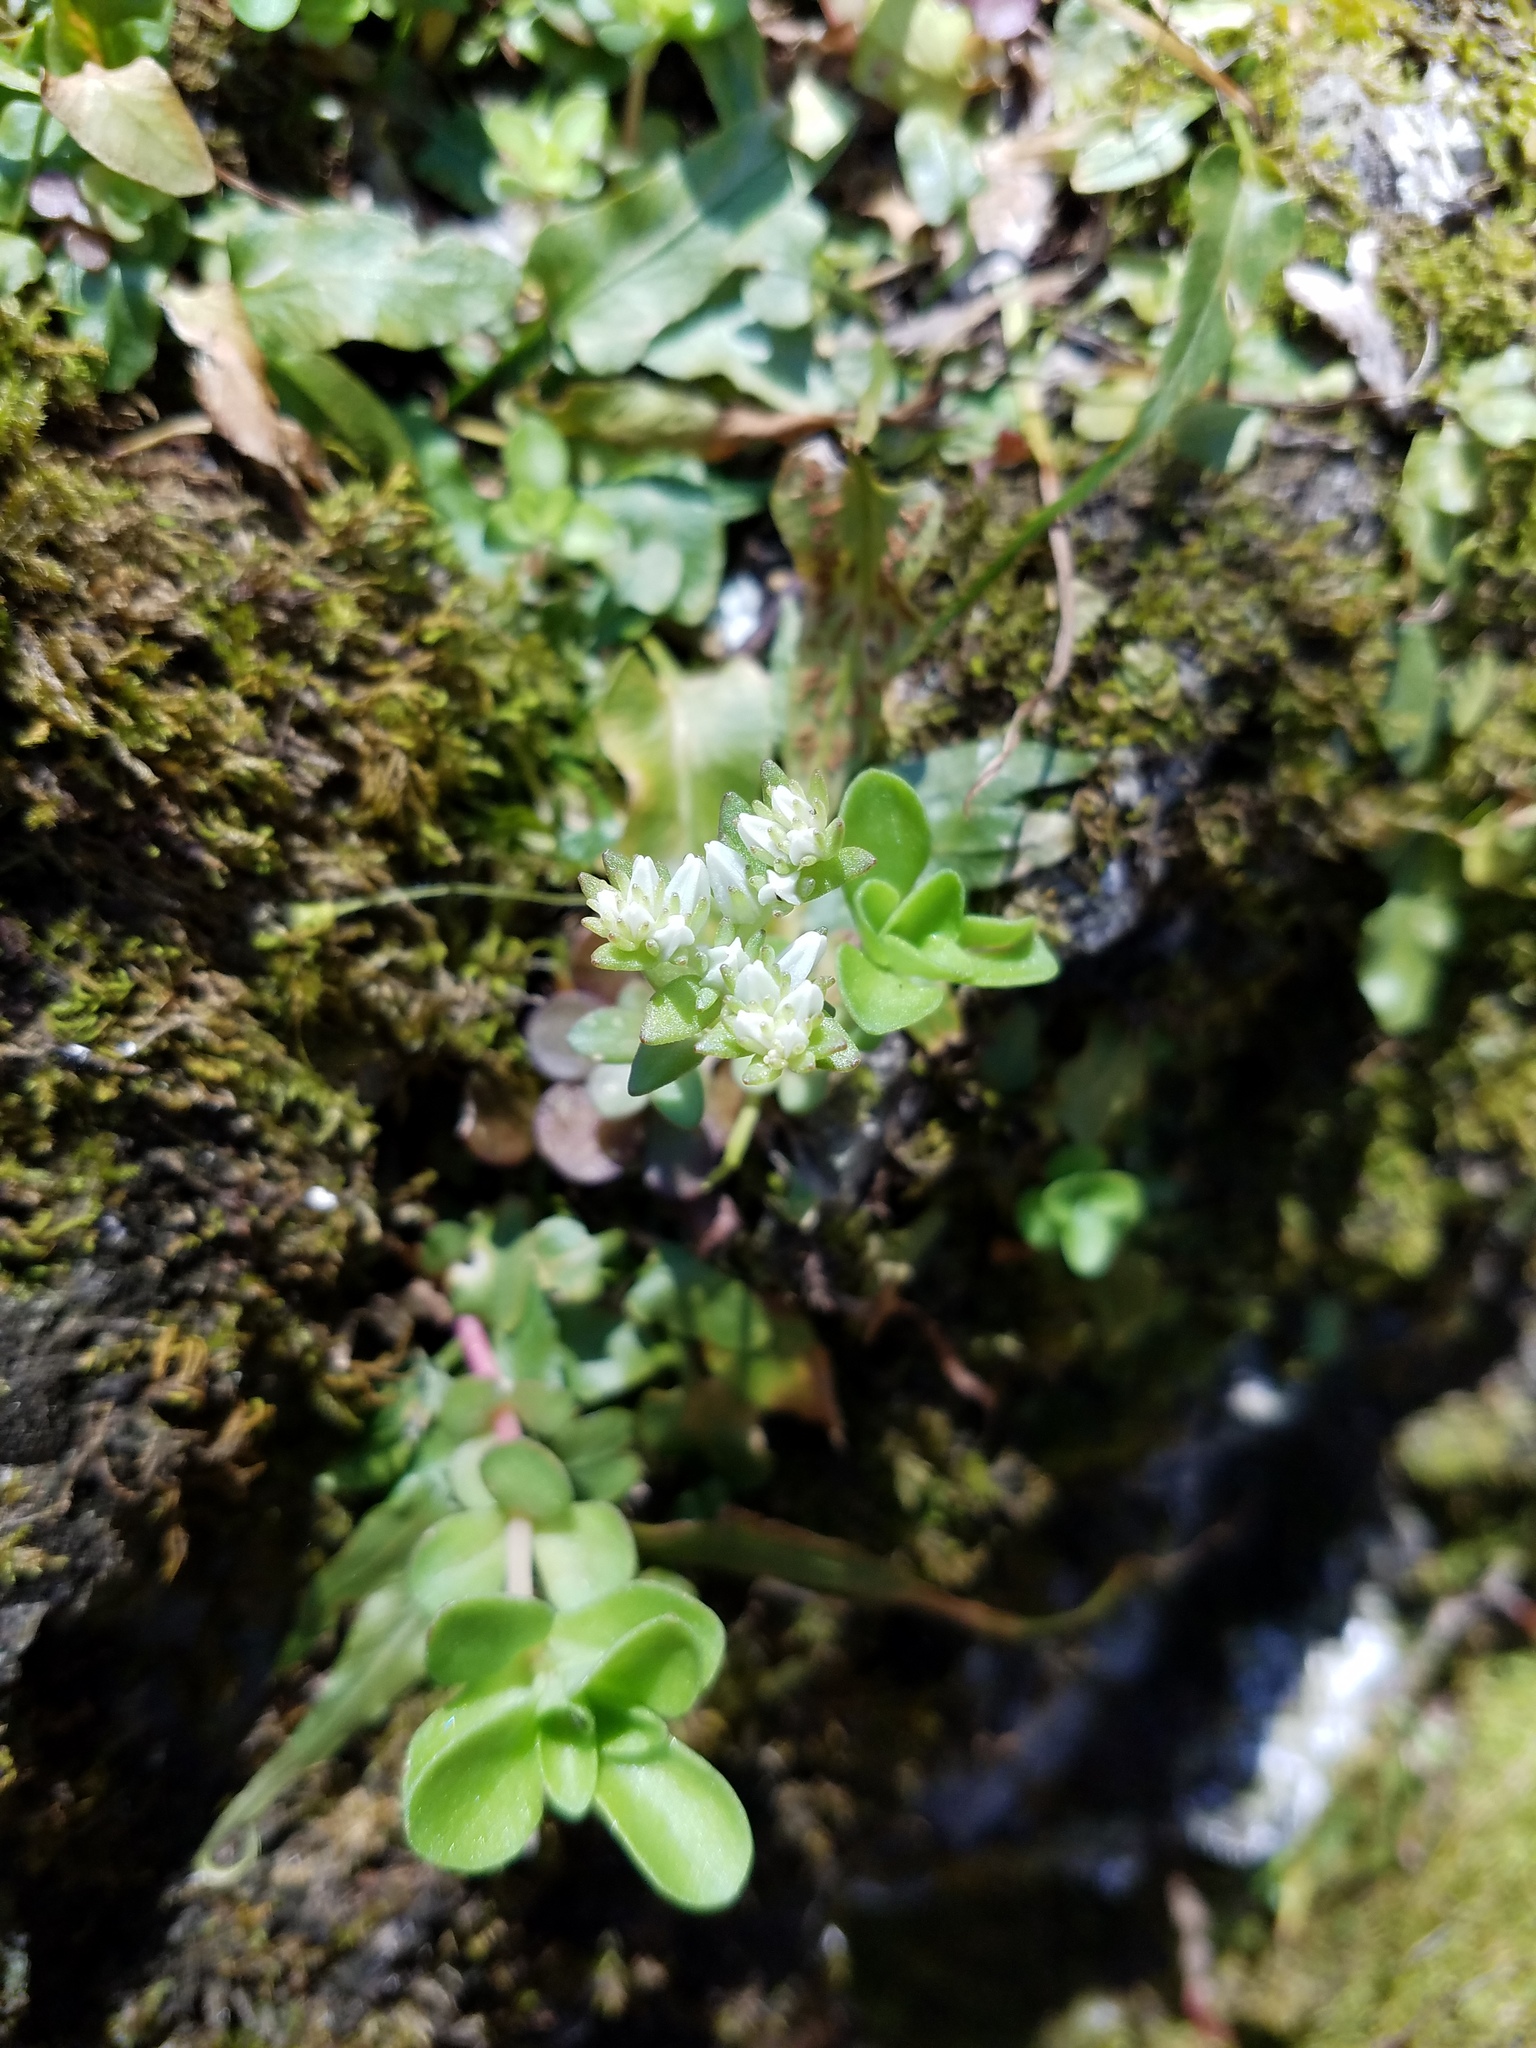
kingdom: Plantae
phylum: Tracheophyta
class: Magnoliopsida
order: Saxifragales
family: Crassulaceae
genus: Sedum
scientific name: Sedum ternatum
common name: Wild stonecrop
